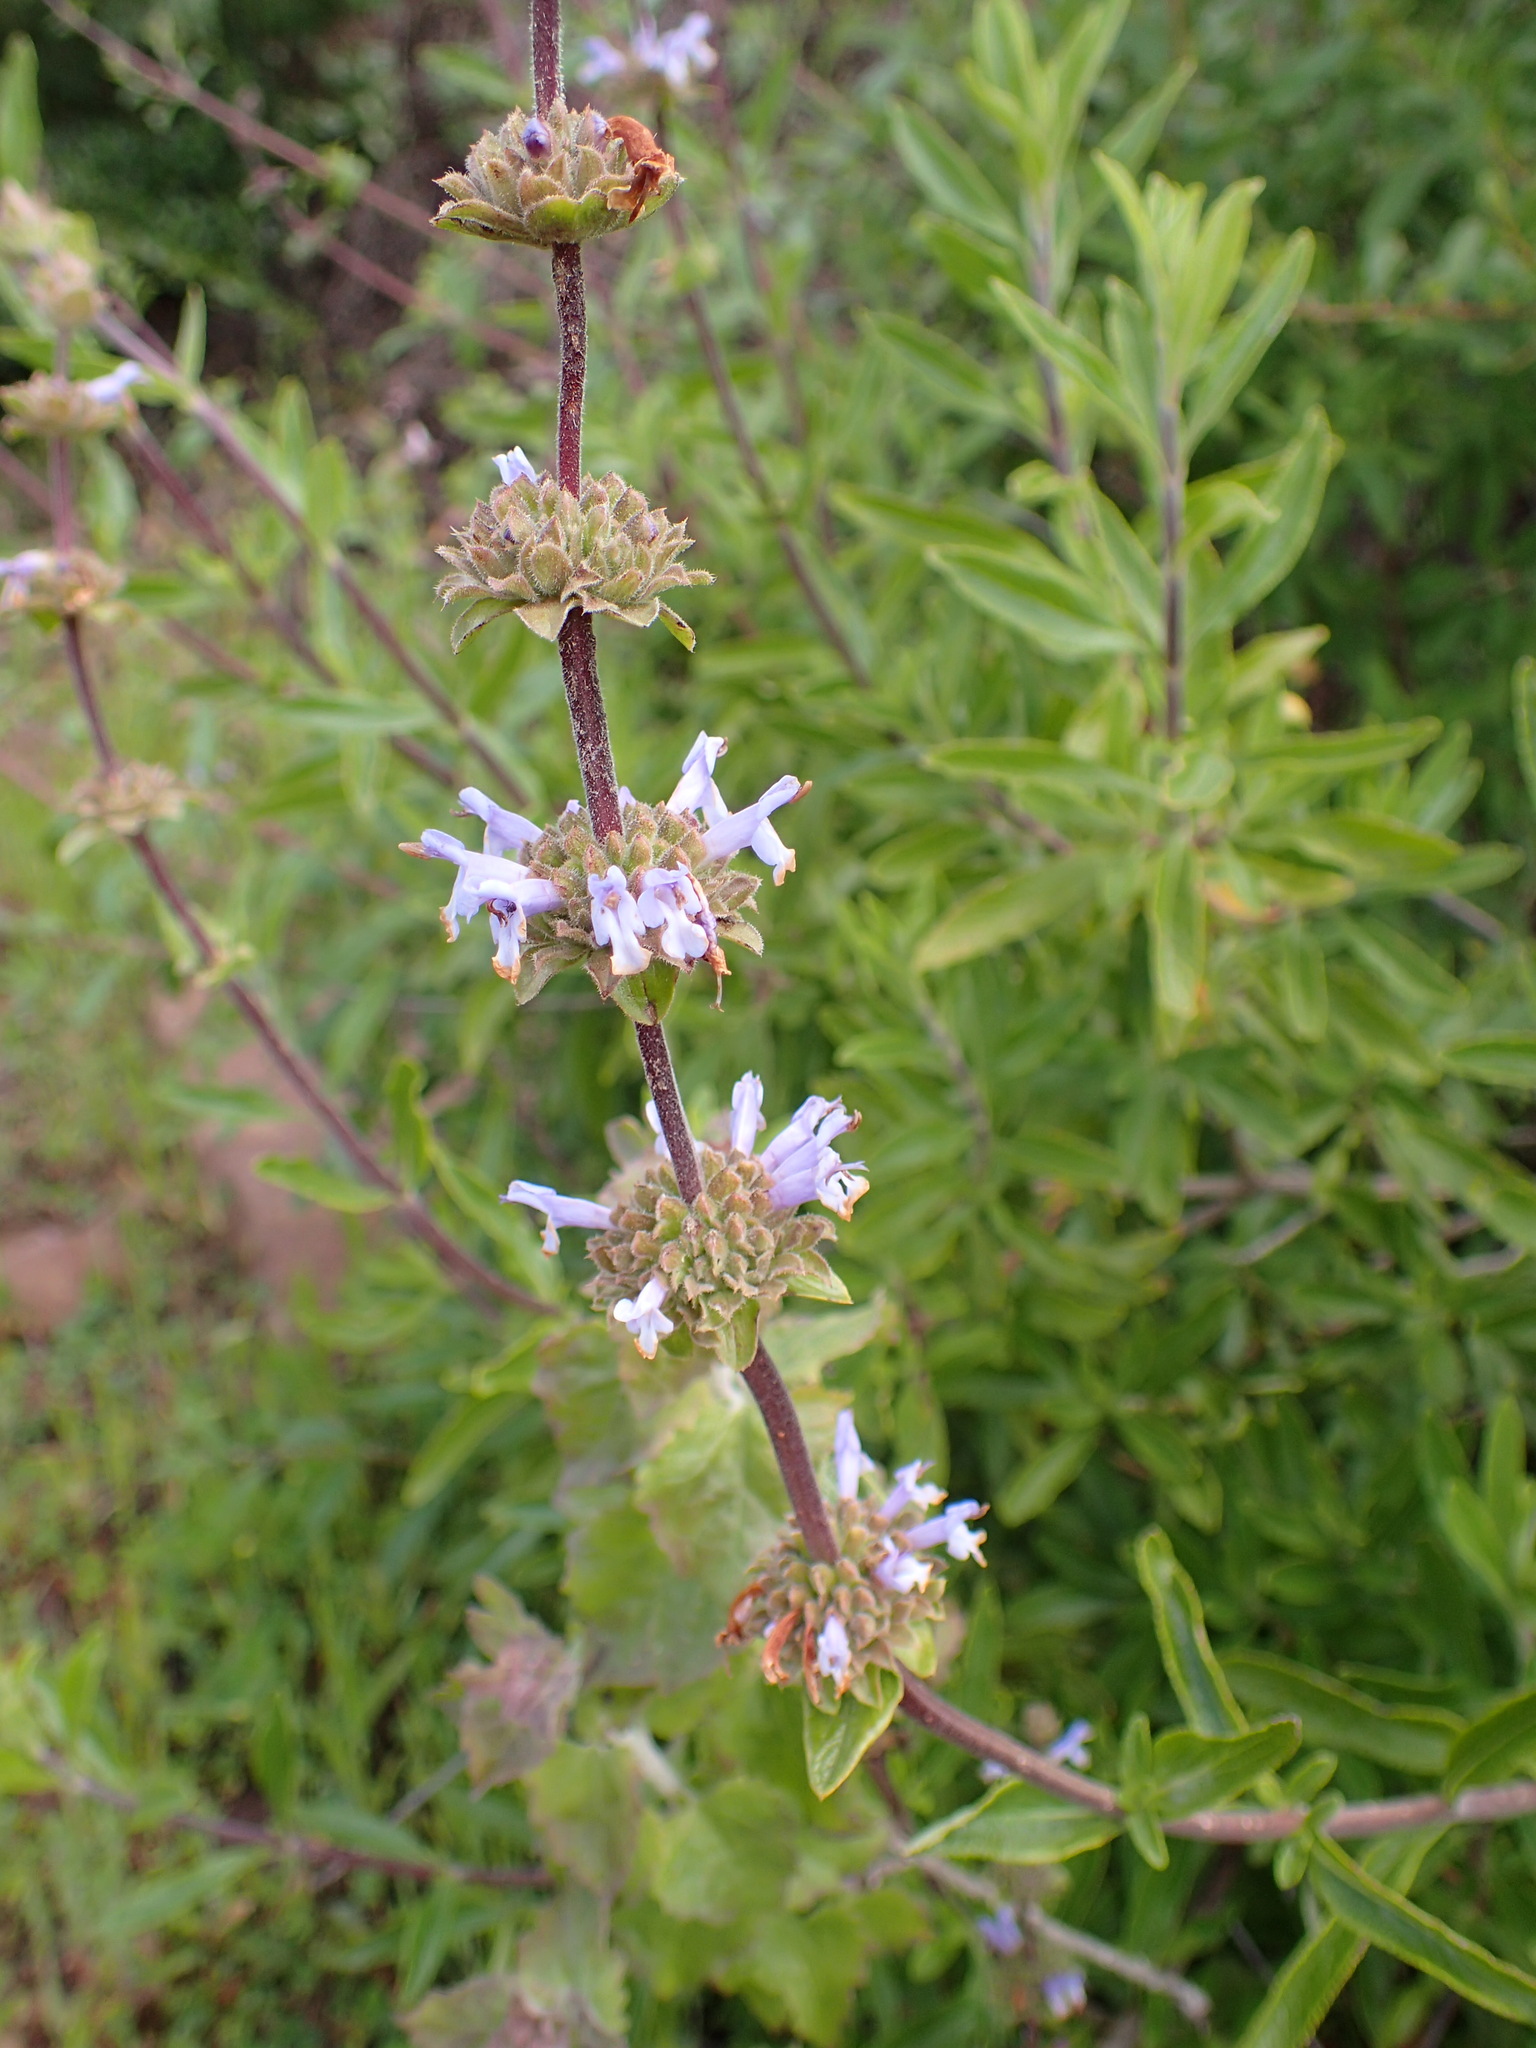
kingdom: Plantae
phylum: Tracheophyta
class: Magnoliopsida
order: Lamiales
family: Lamiaceae
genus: Salvia
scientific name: Salvia mellifera
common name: Black sage
